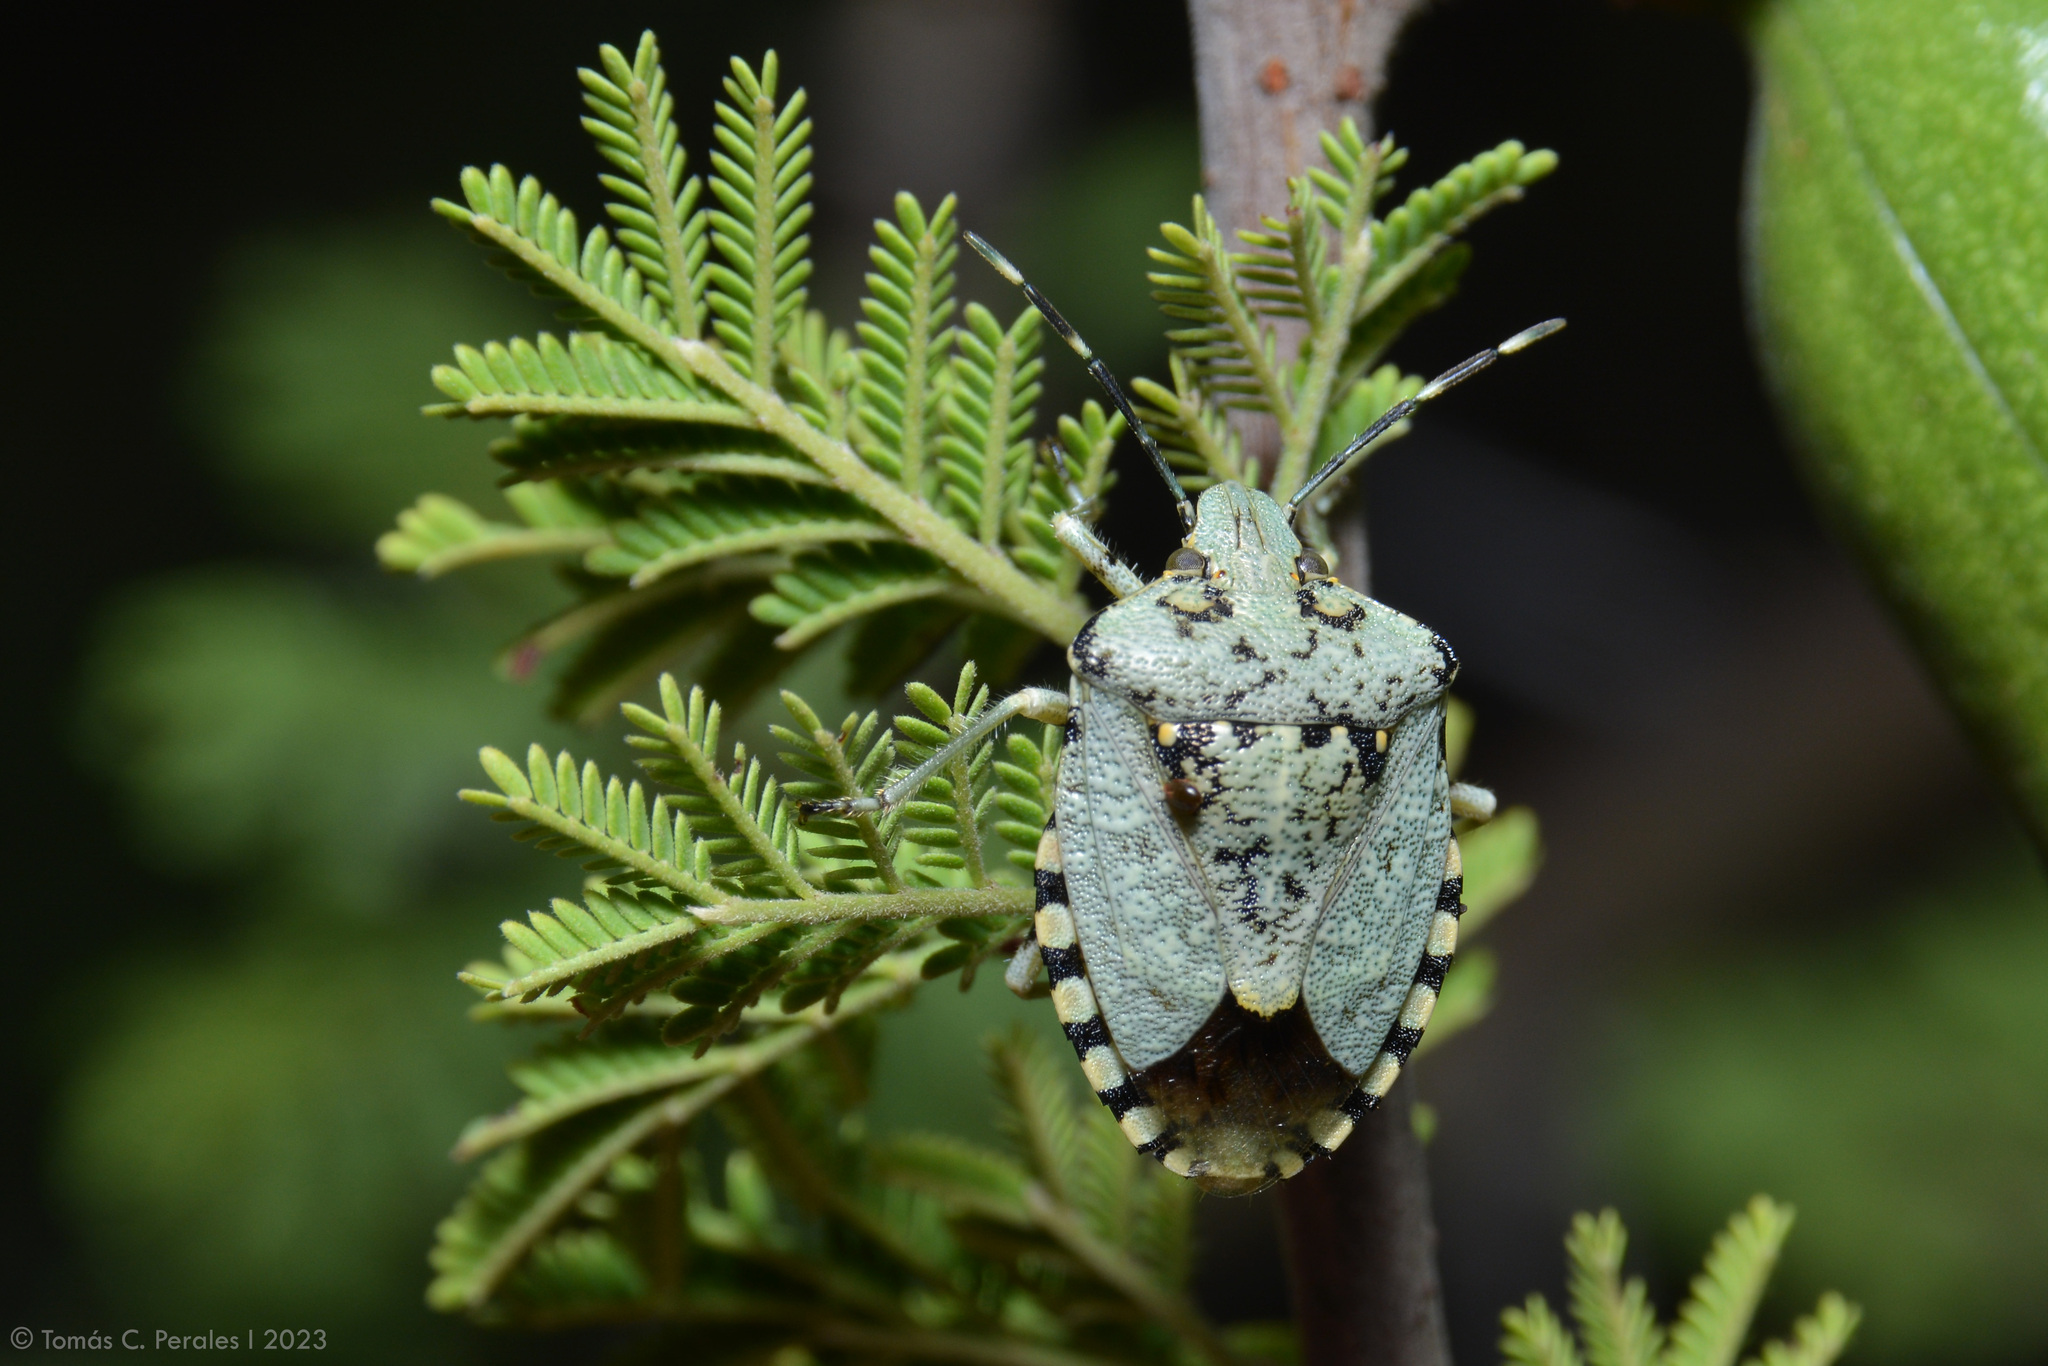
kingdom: Animalia
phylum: Arthropoda
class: Insecta
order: Hemiptera
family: Pentatomidae
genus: Chinavia
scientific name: Chinavia musiva
